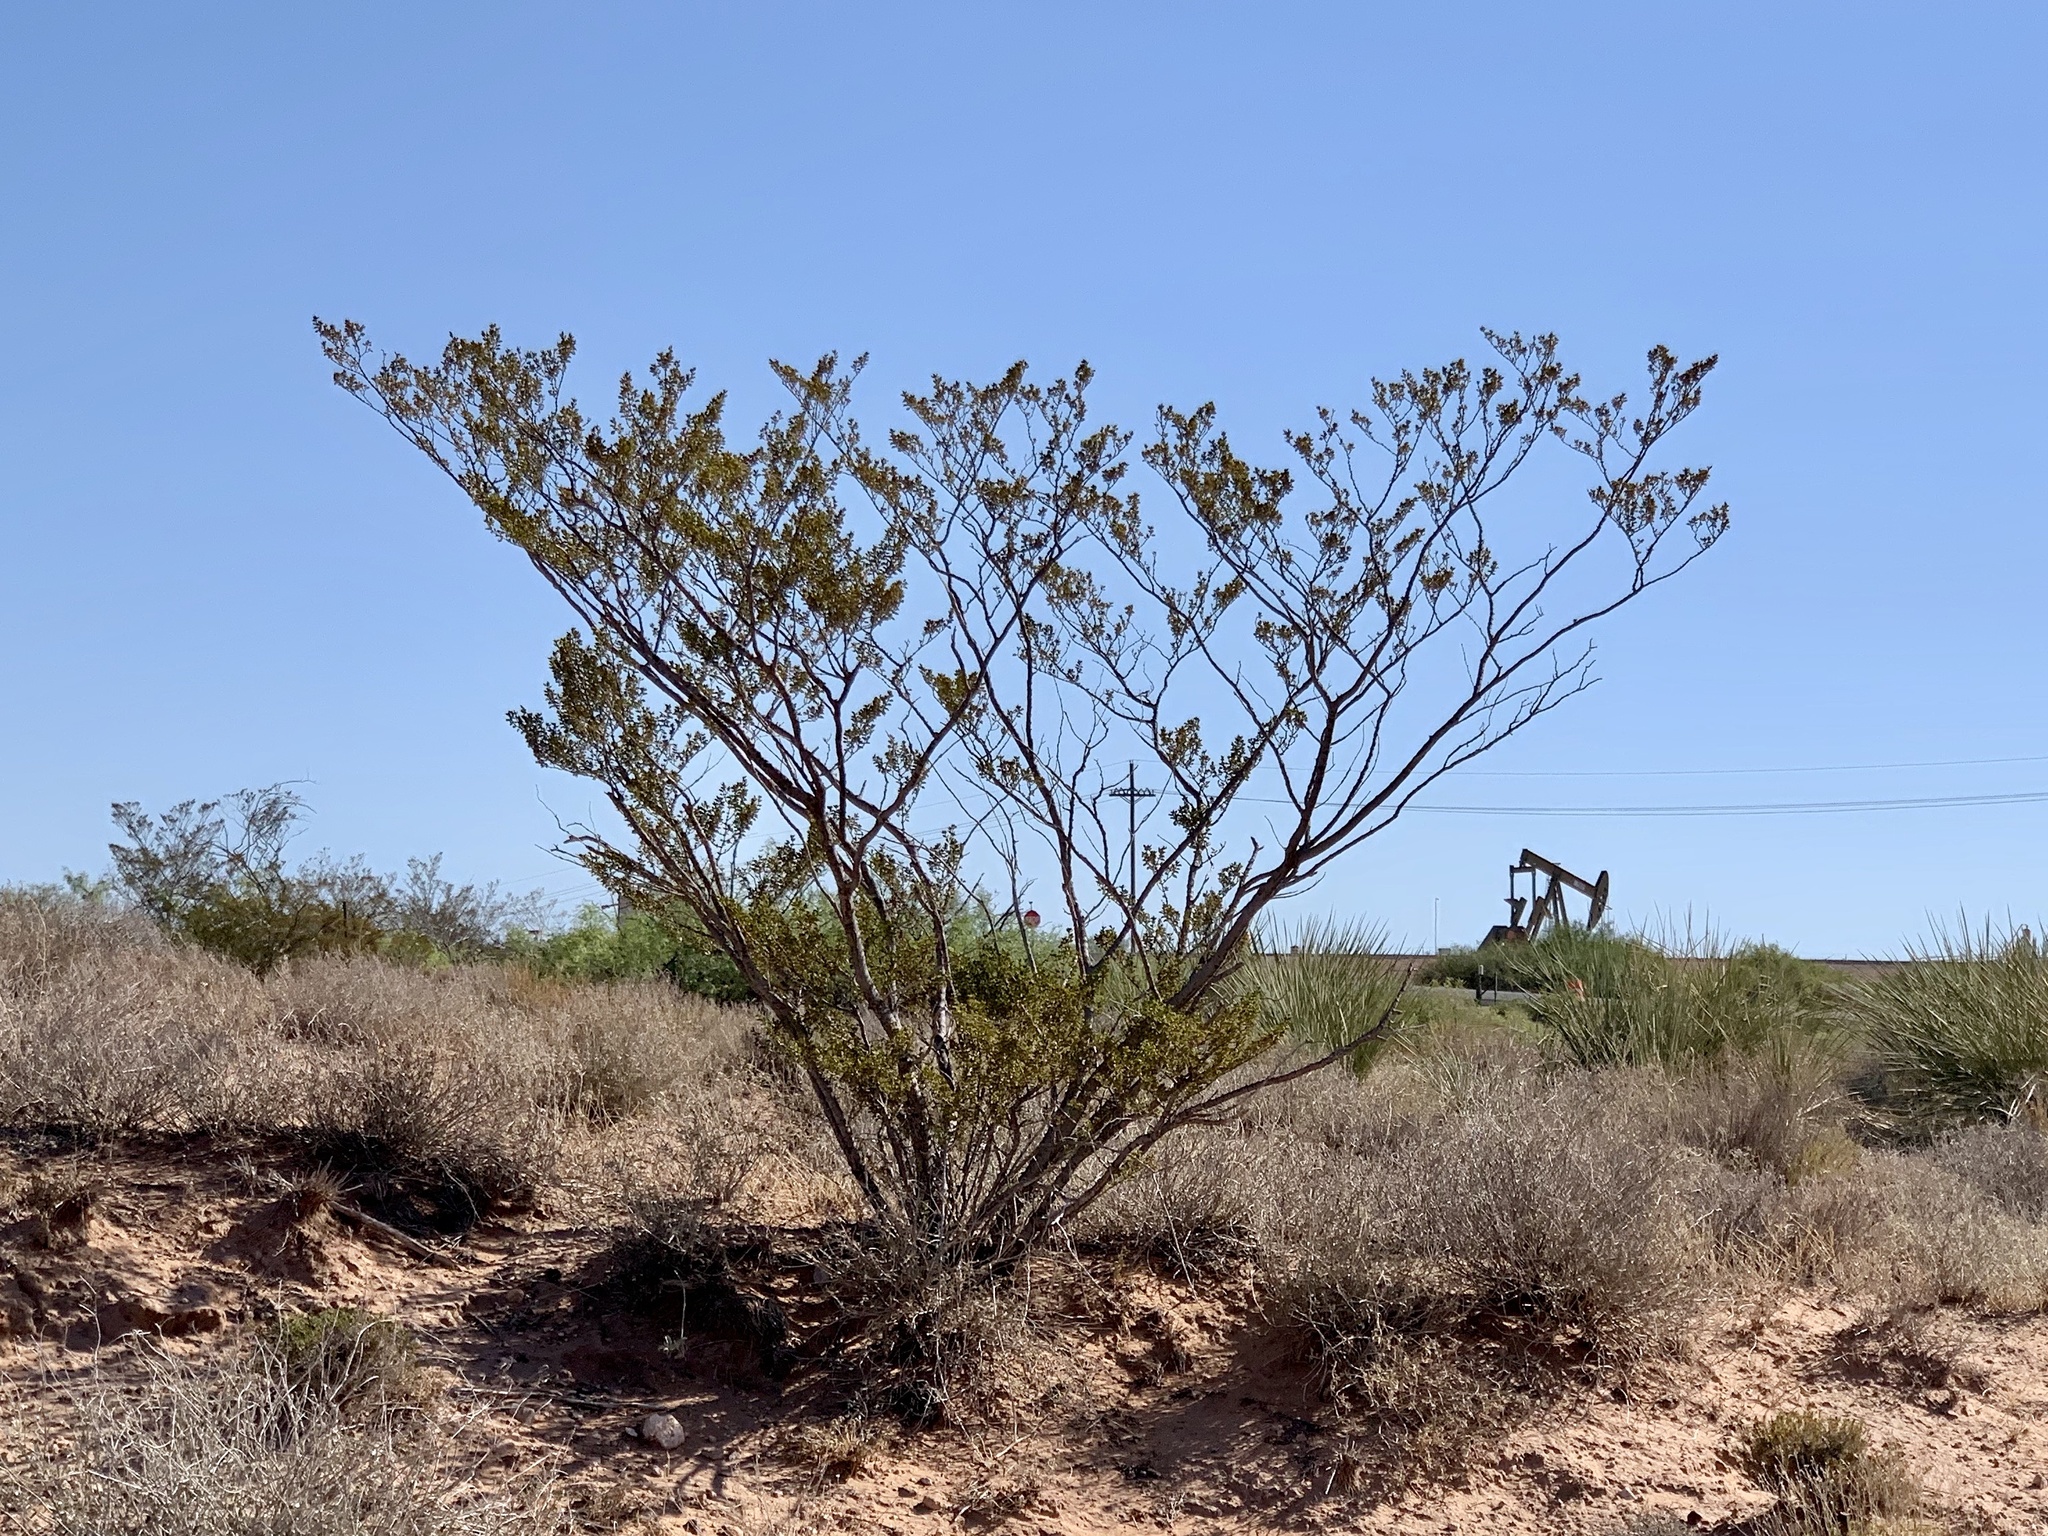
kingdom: Plantae
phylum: Tracheophyta
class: Magnoliopsida
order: Zygophyllales
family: Zygophyllaceae
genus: Larrea
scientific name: Larrea tridentata
